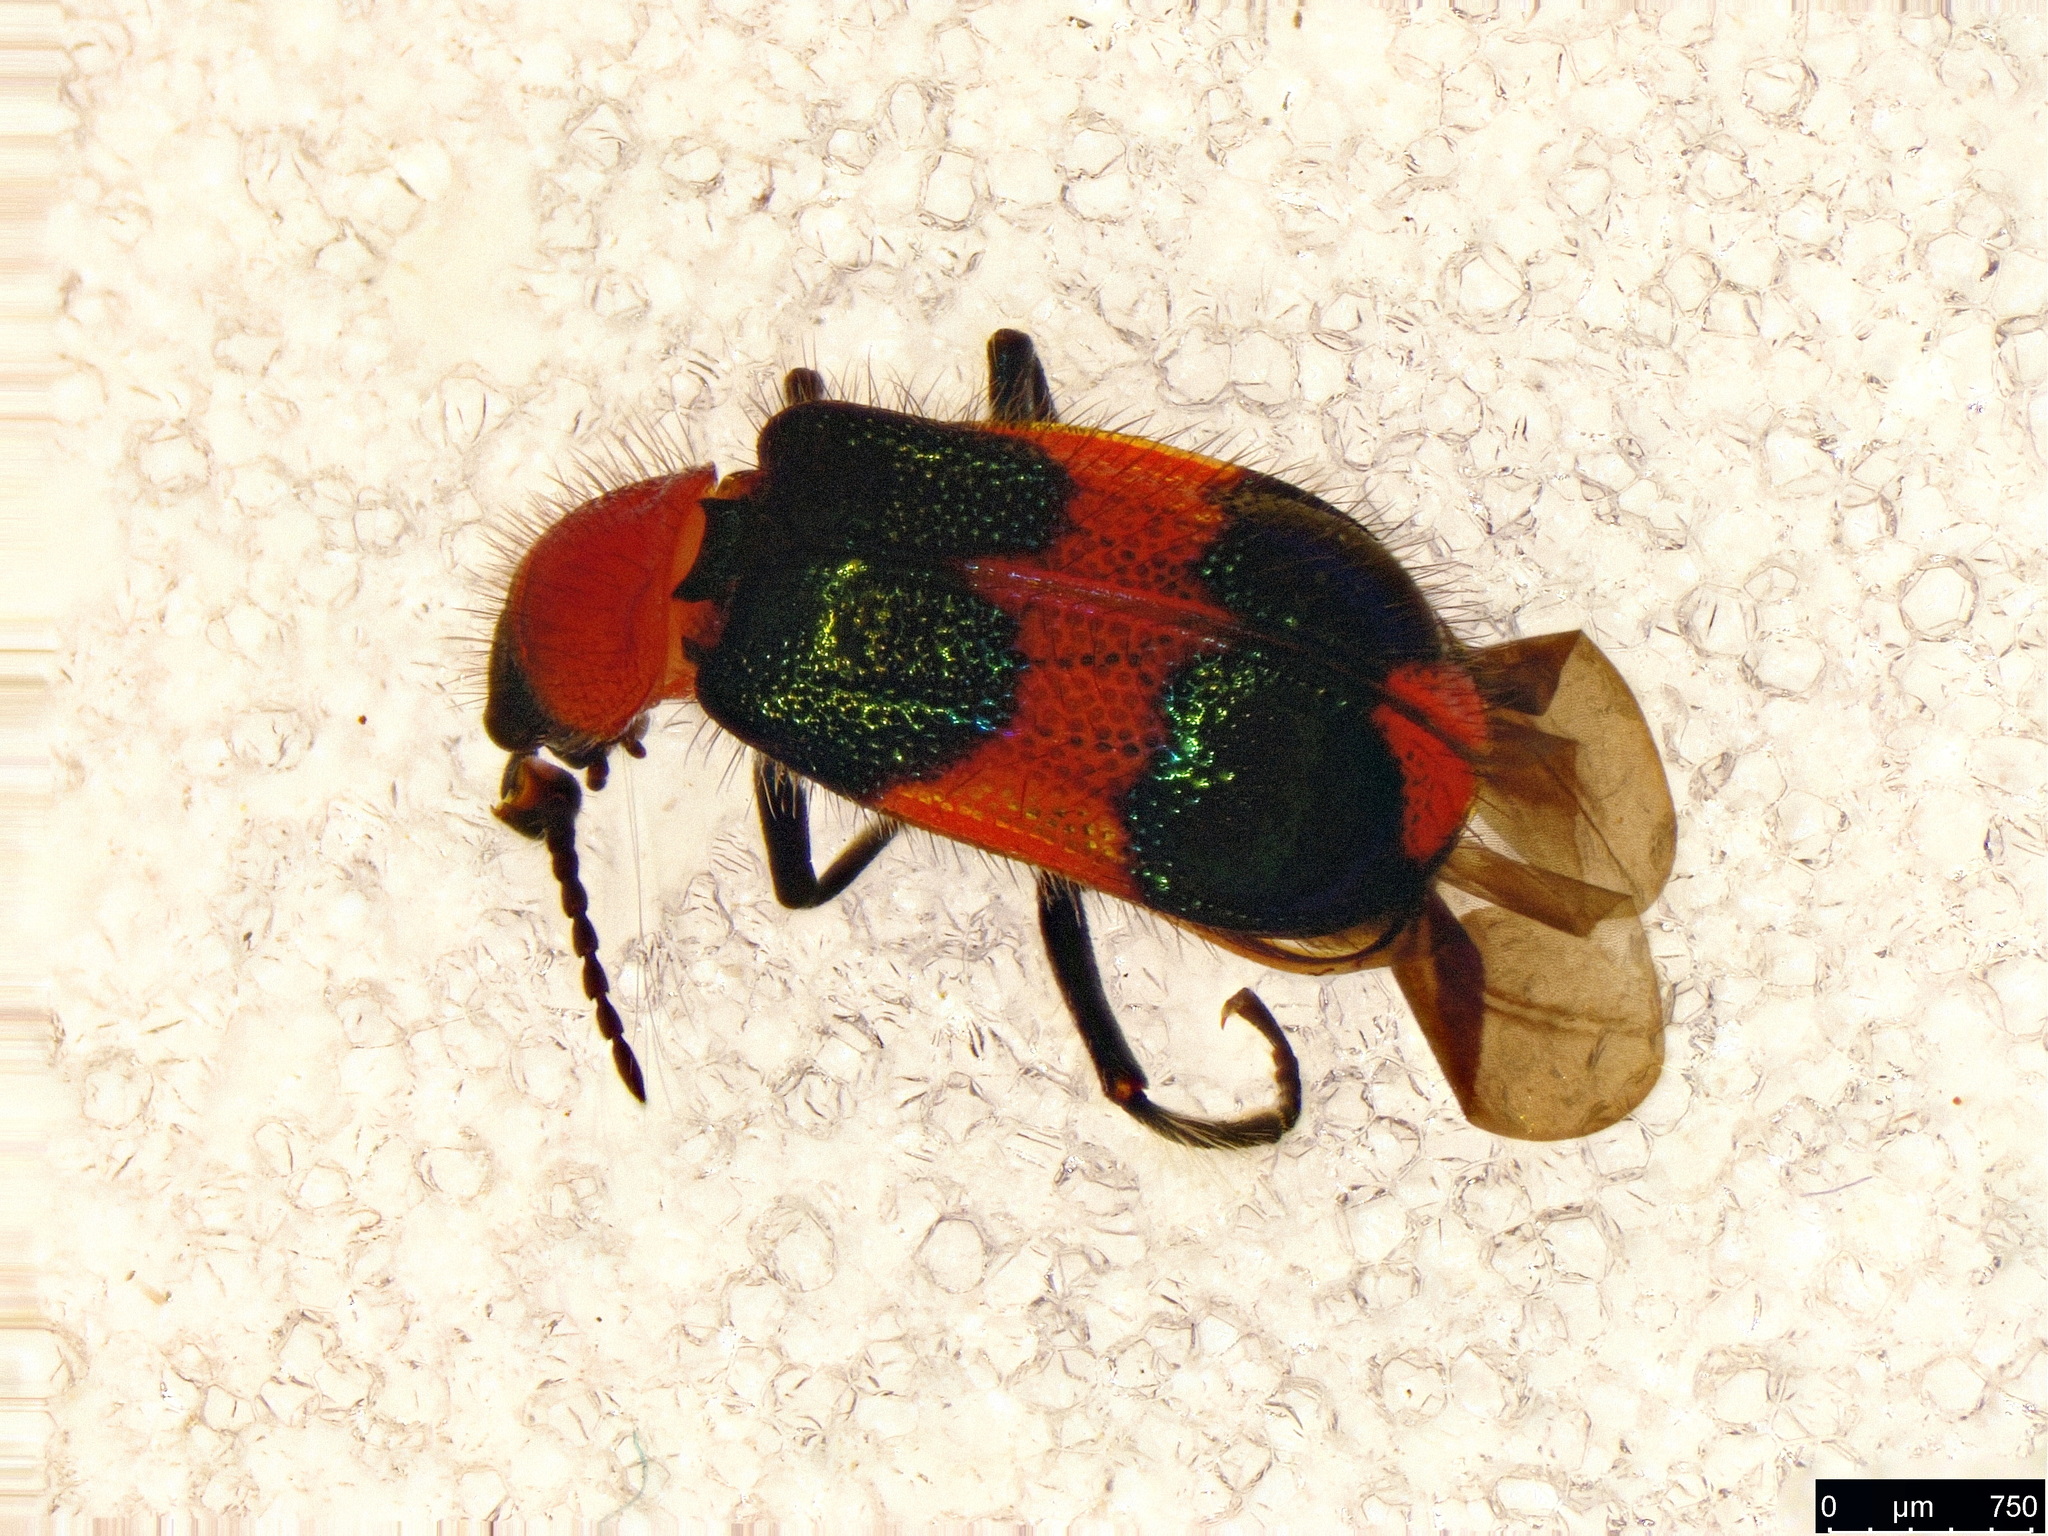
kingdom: Animalia
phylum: Arthropoda
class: Insecta
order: Coleoptera
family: Melyridae
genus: Dicranolaius
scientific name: Dicranolaius bellulus
